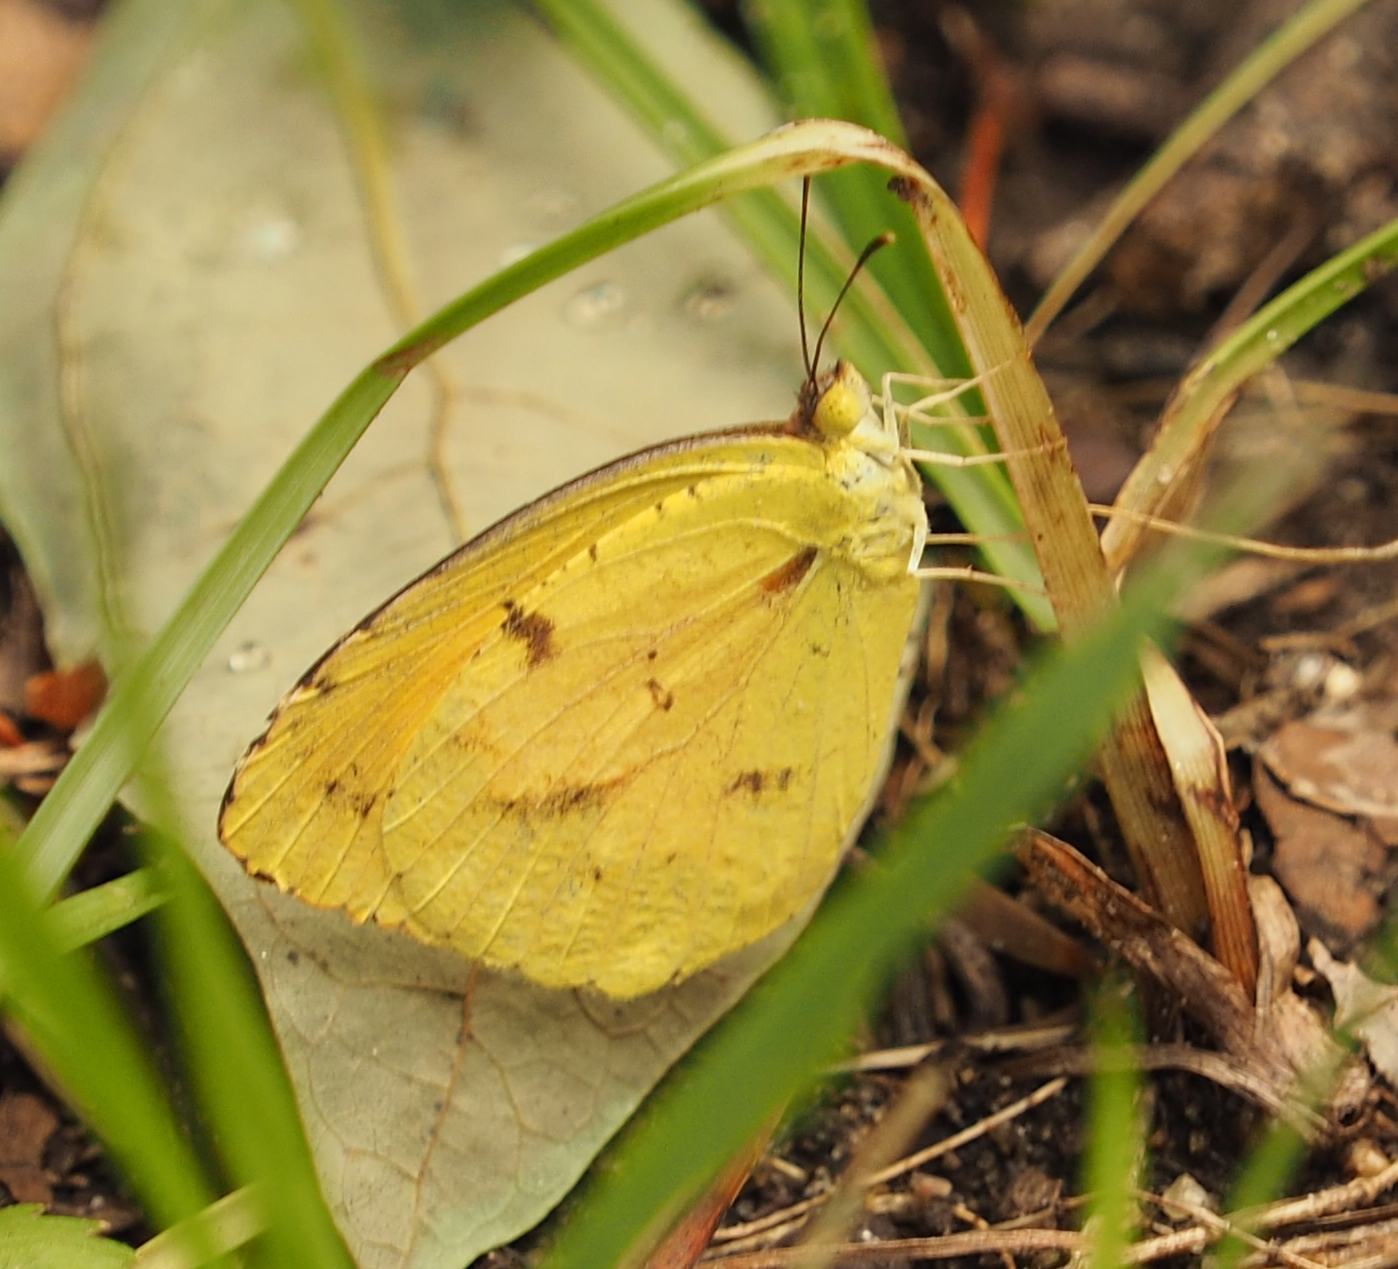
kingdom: Animalia
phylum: Arthropoda
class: Insecta
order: Lepidoptera
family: Pieridae
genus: Abaeis
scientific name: Abaeis nicippe
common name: Sleepy orange
